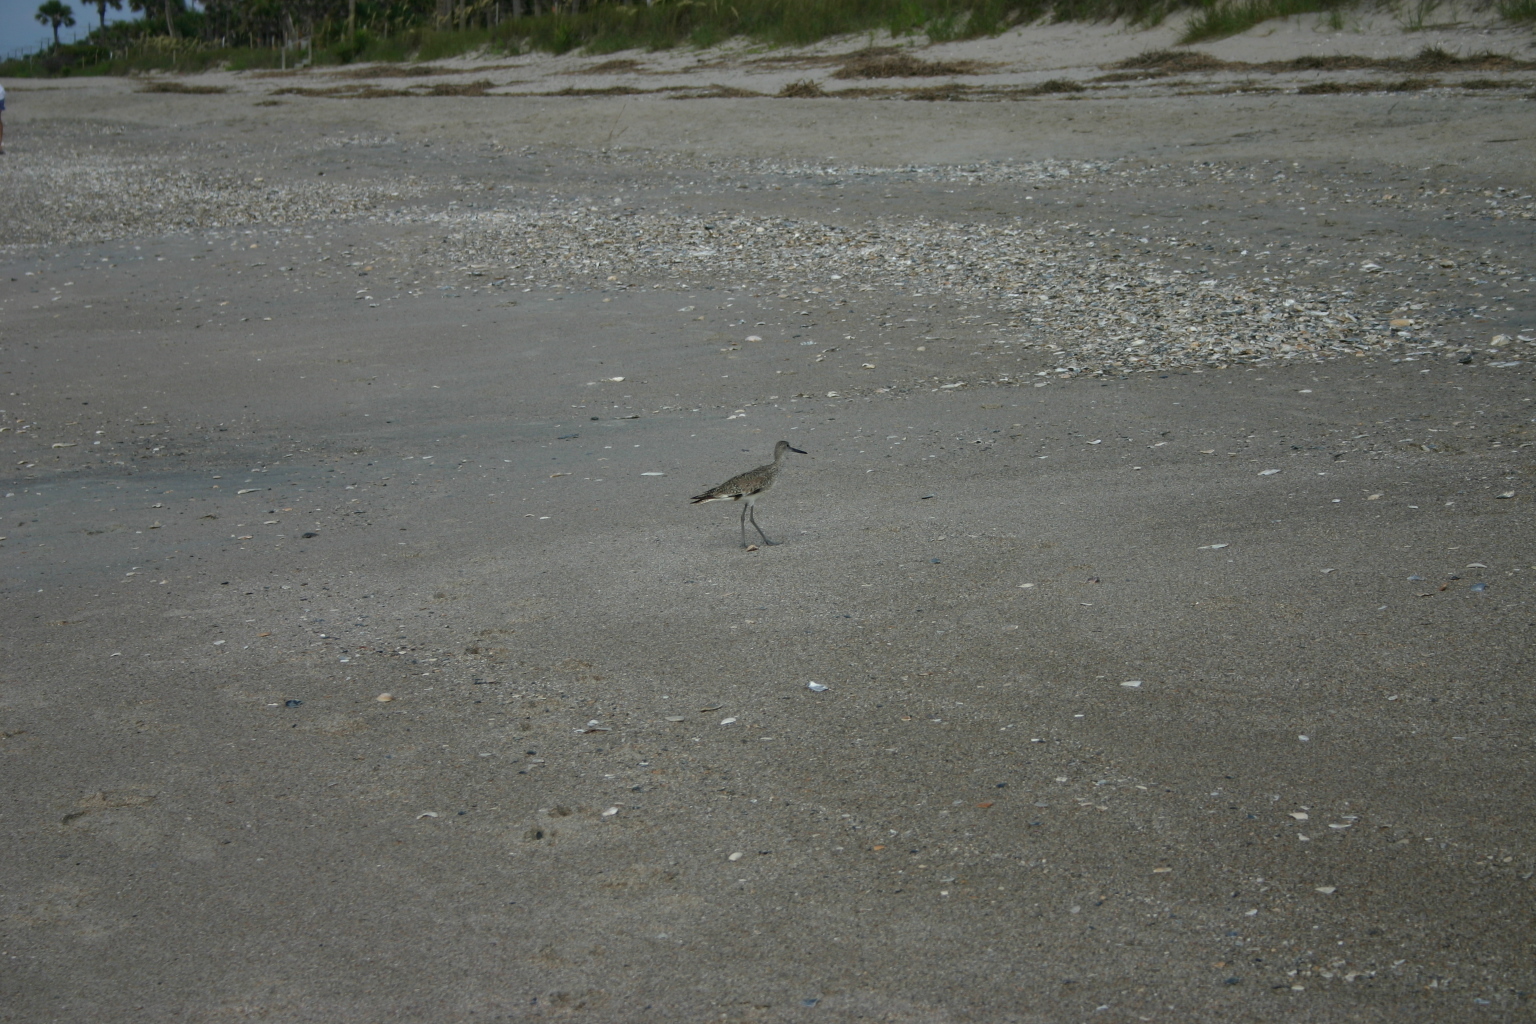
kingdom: Animalia
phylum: Chordata
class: Aves
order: Charadriiformes
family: Scolopacidae
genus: Tringa
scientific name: Tringa semipalmata
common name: Willet
